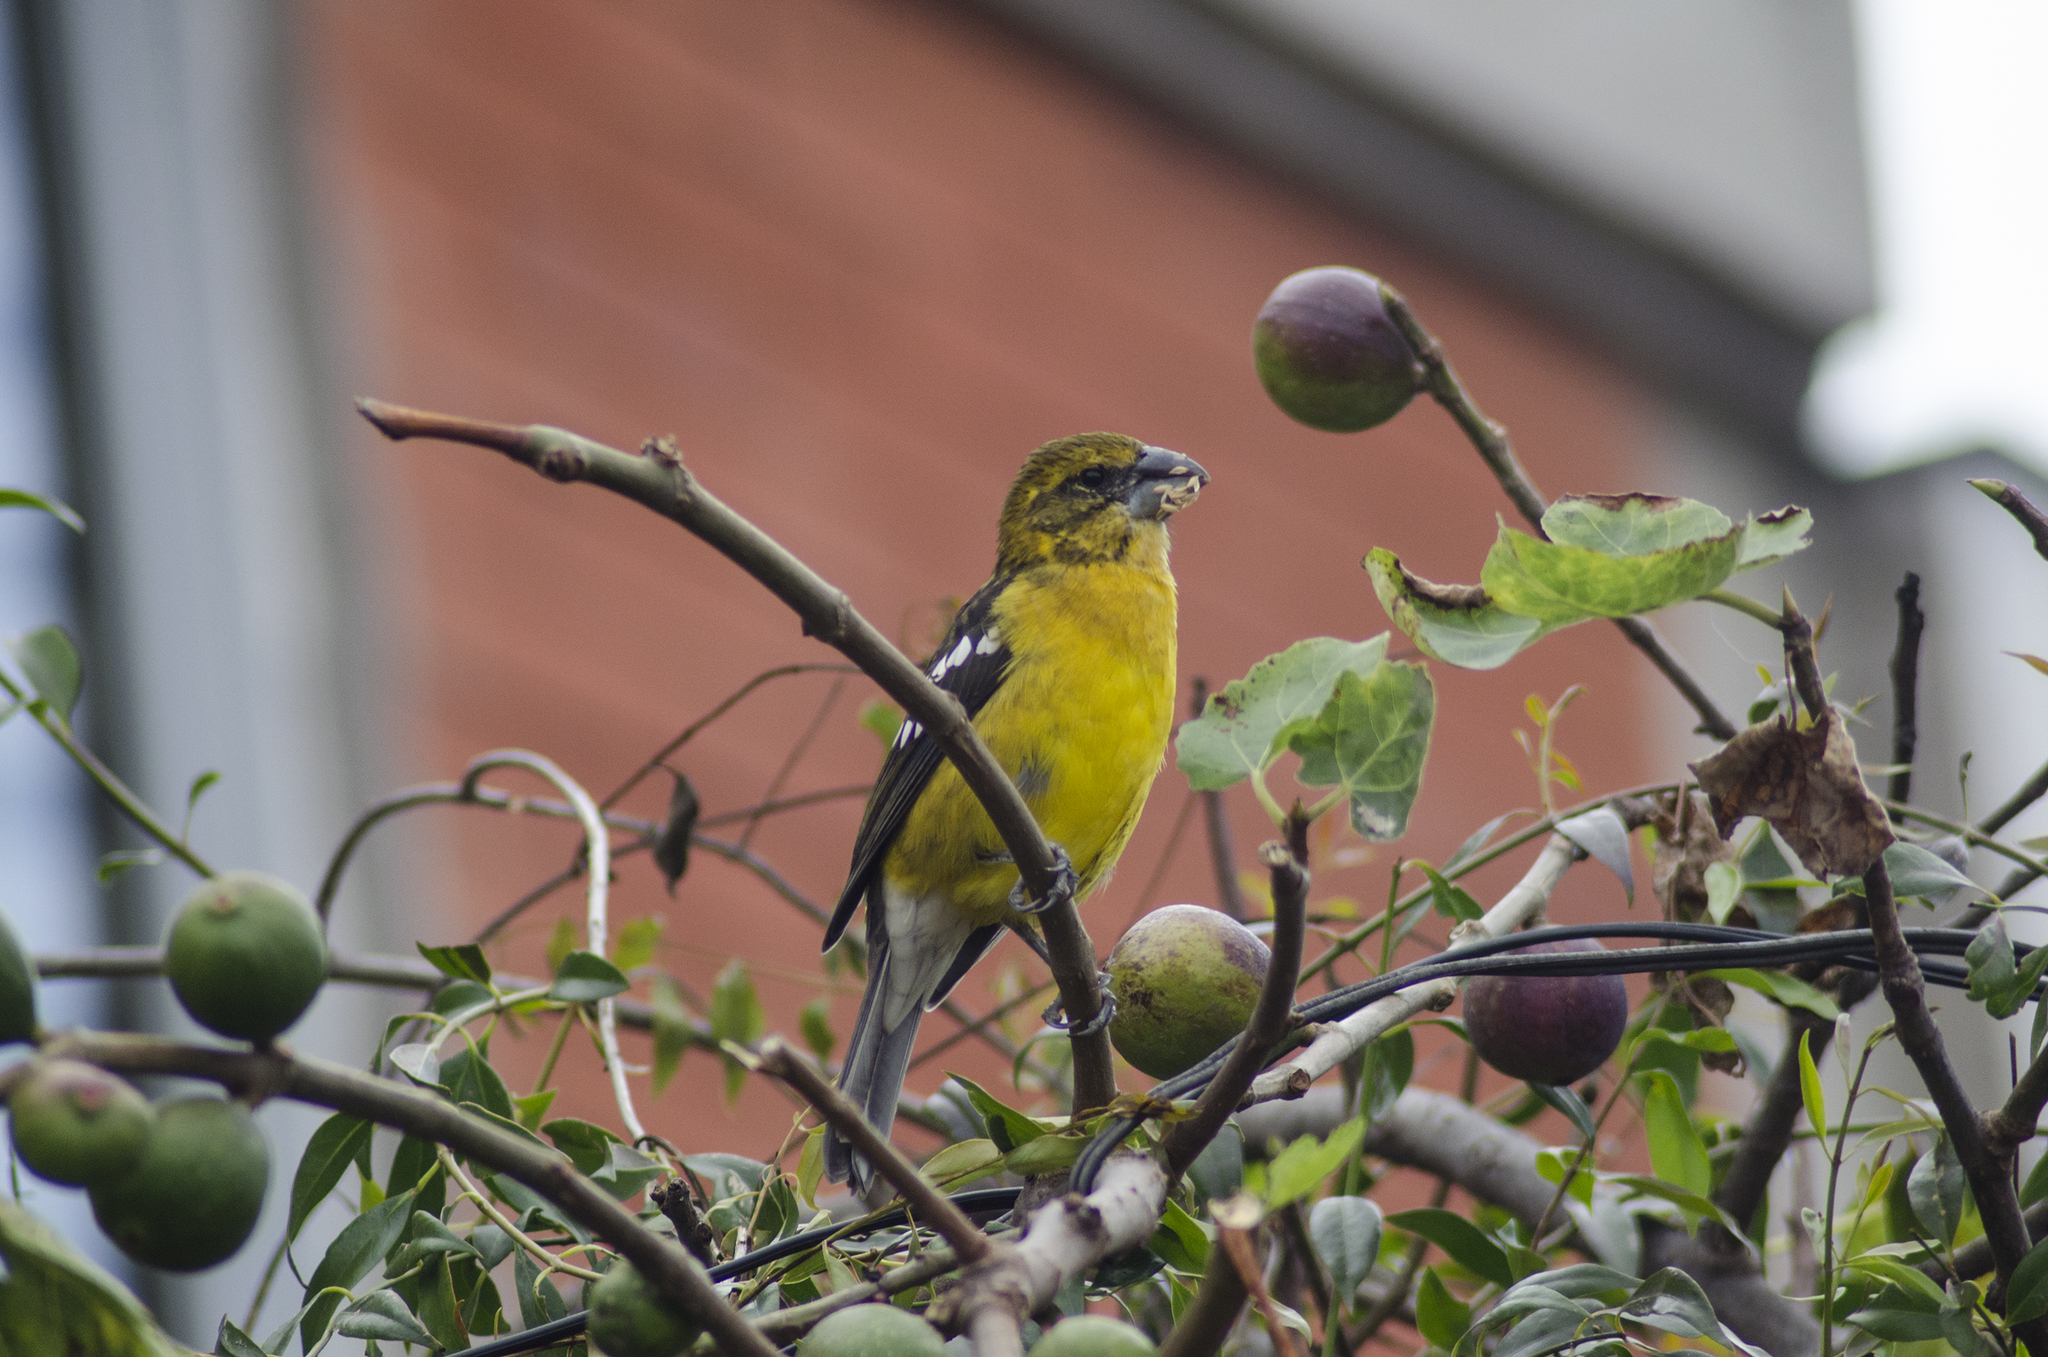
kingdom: Animalia
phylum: Chordata
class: Aves
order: Passeriformes
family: Cardinalidae
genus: Pheucticus
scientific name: Pheucticus chrysogaster
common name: Golden grosbeak
